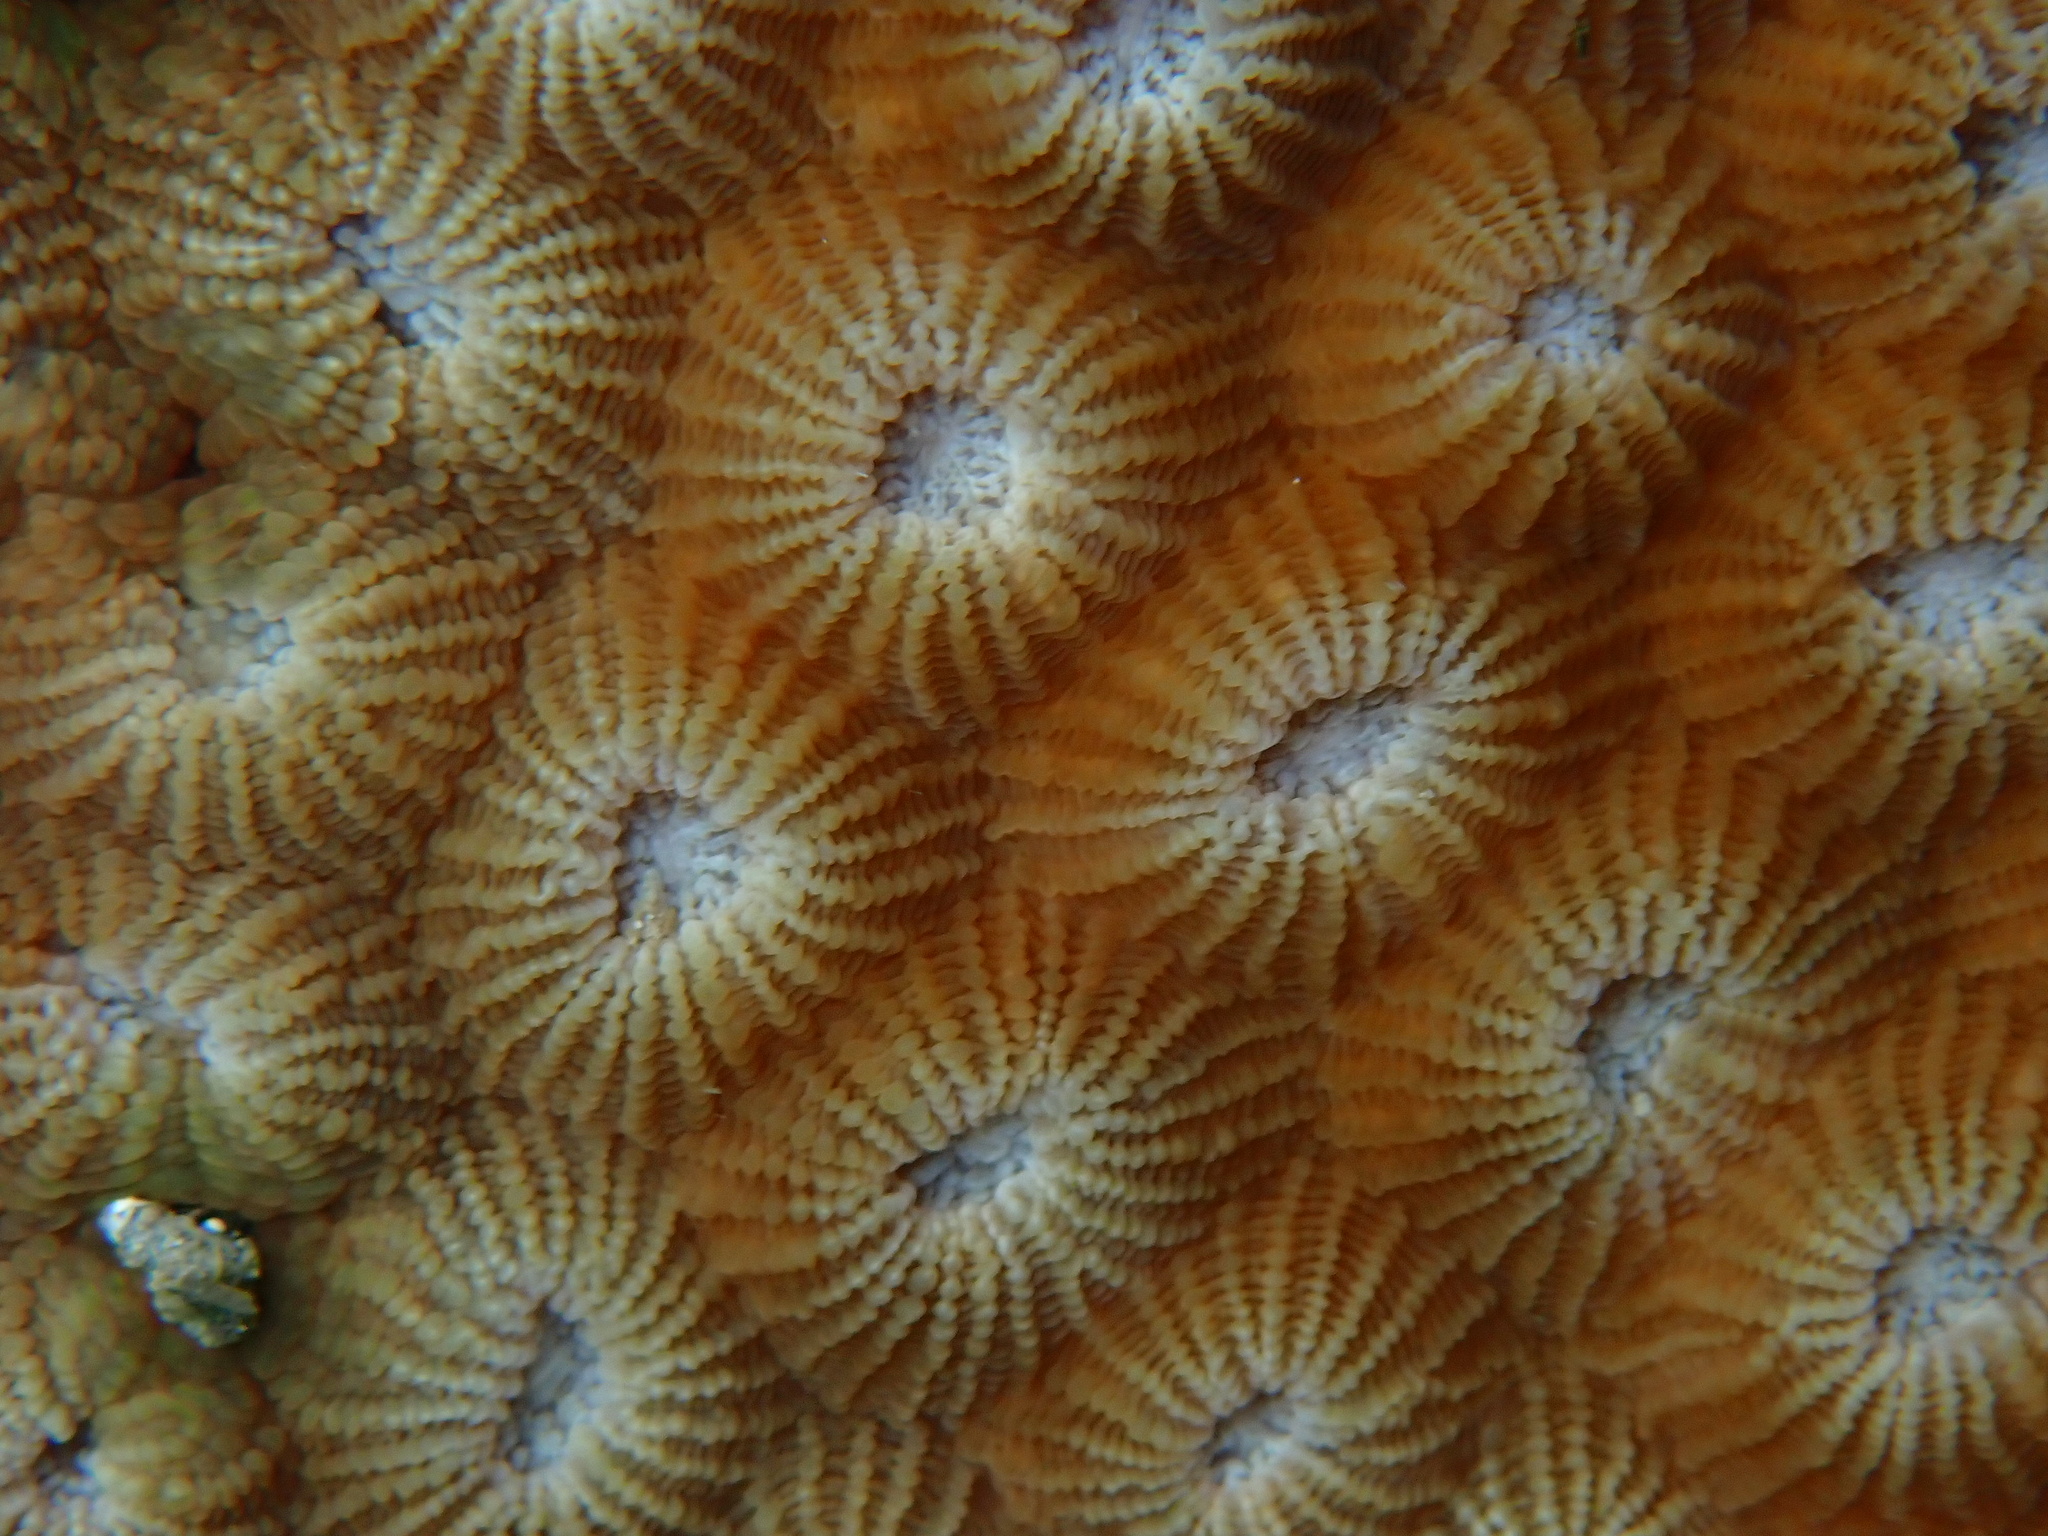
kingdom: Animalia
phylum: Cnidaria
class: Anthozoa
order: Scleractinia
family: Diploastraeidae
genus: Diploastrea
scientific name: Diploastrea heliopora
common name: Double-star coral
